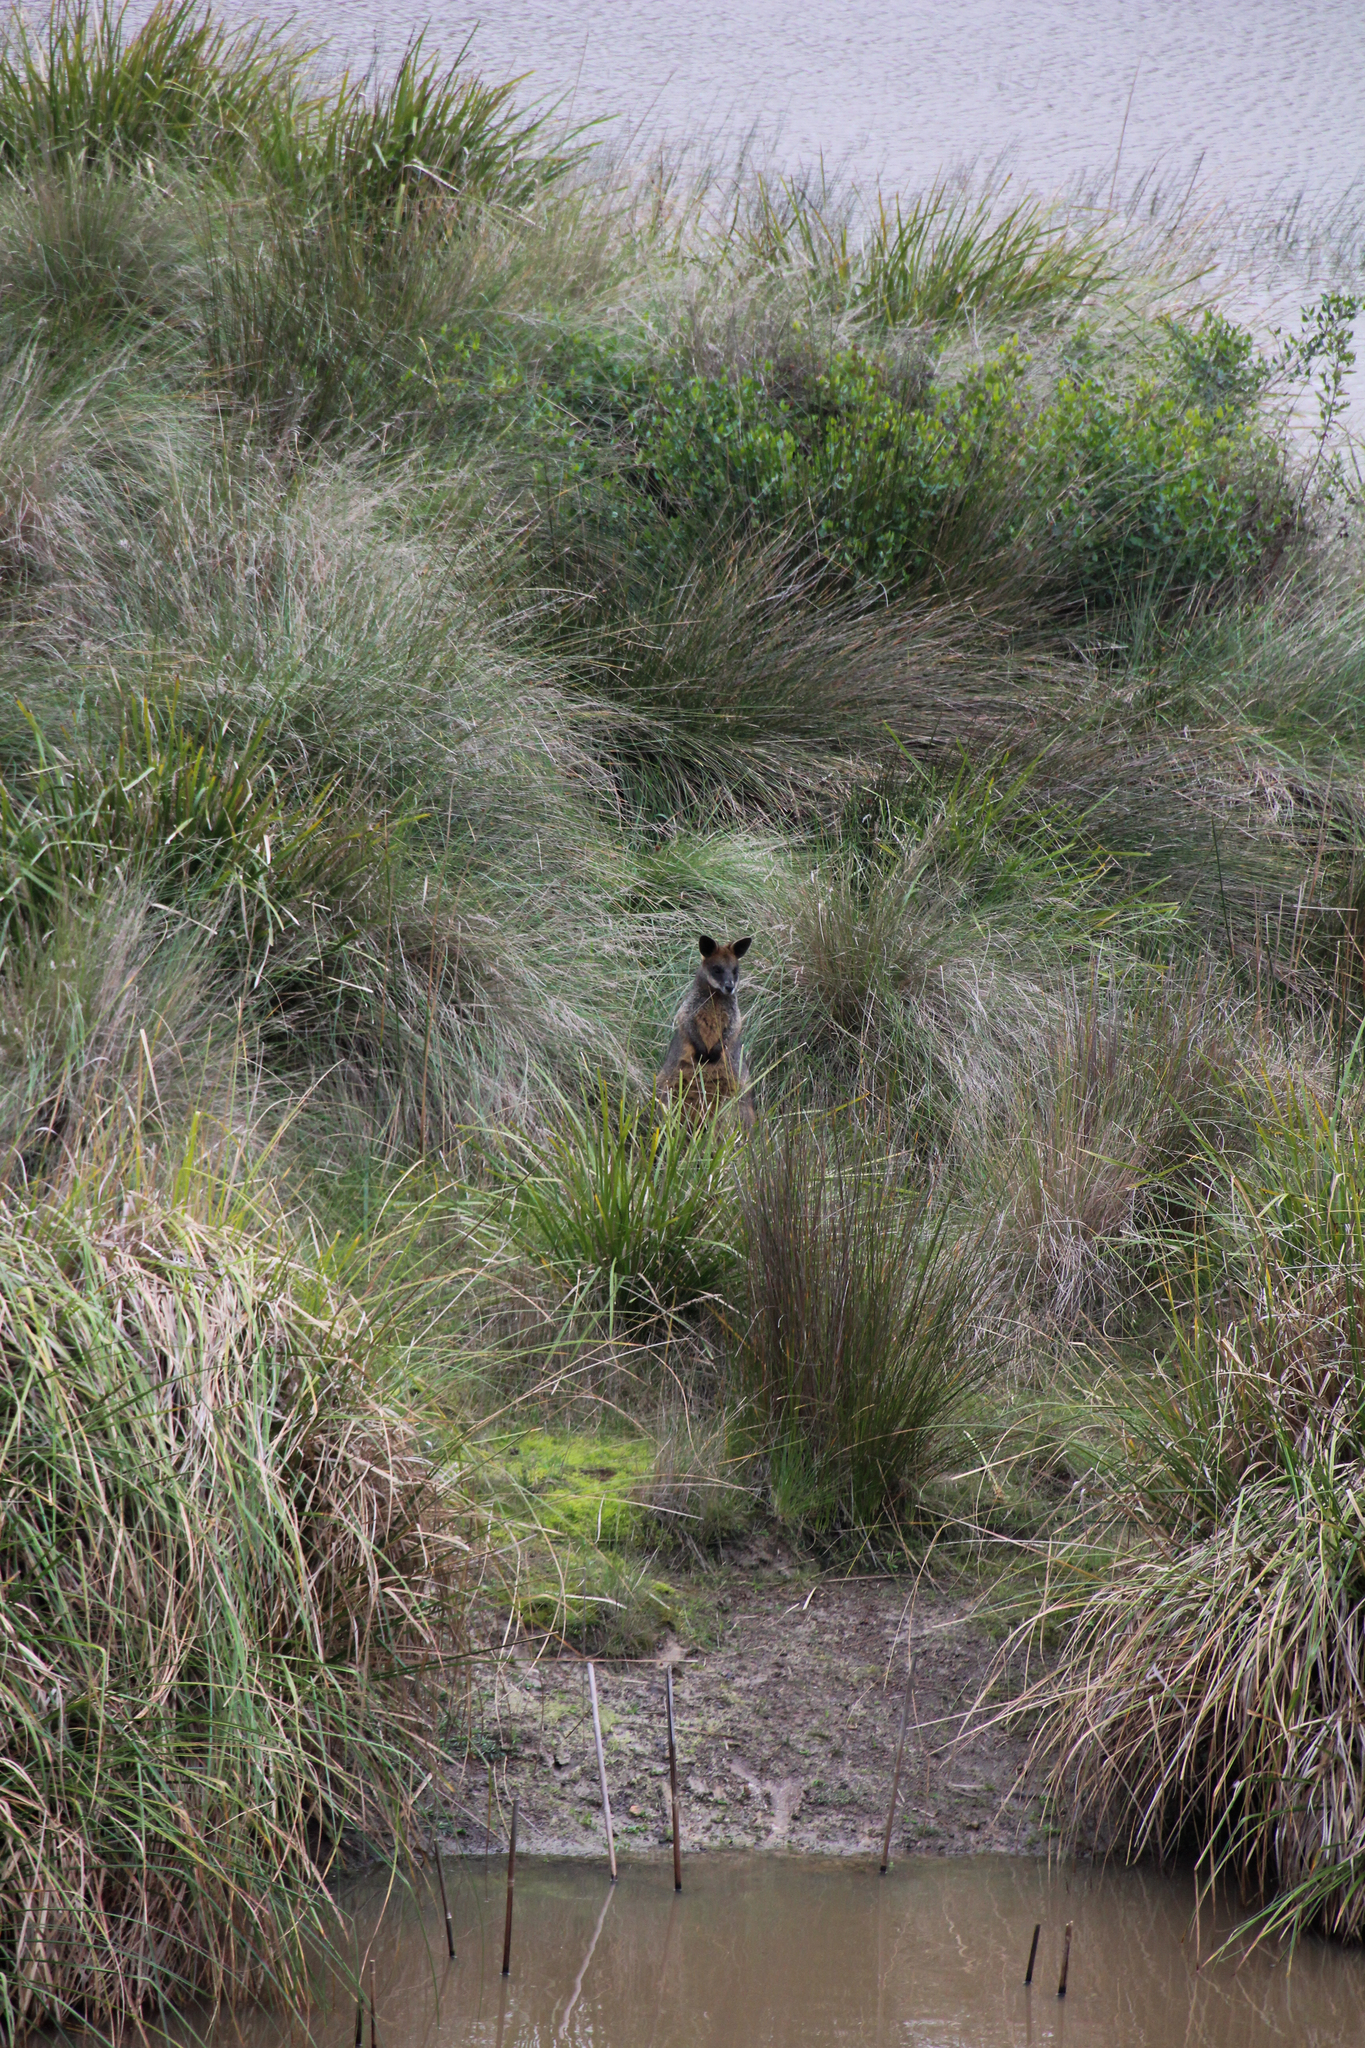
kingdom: Animalia
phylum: Chordata
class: Mammalia
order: Diprotodontia
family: Macropodidae
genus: Wallabia
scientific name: Wallabia bicolor
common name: Swamp wallaby
